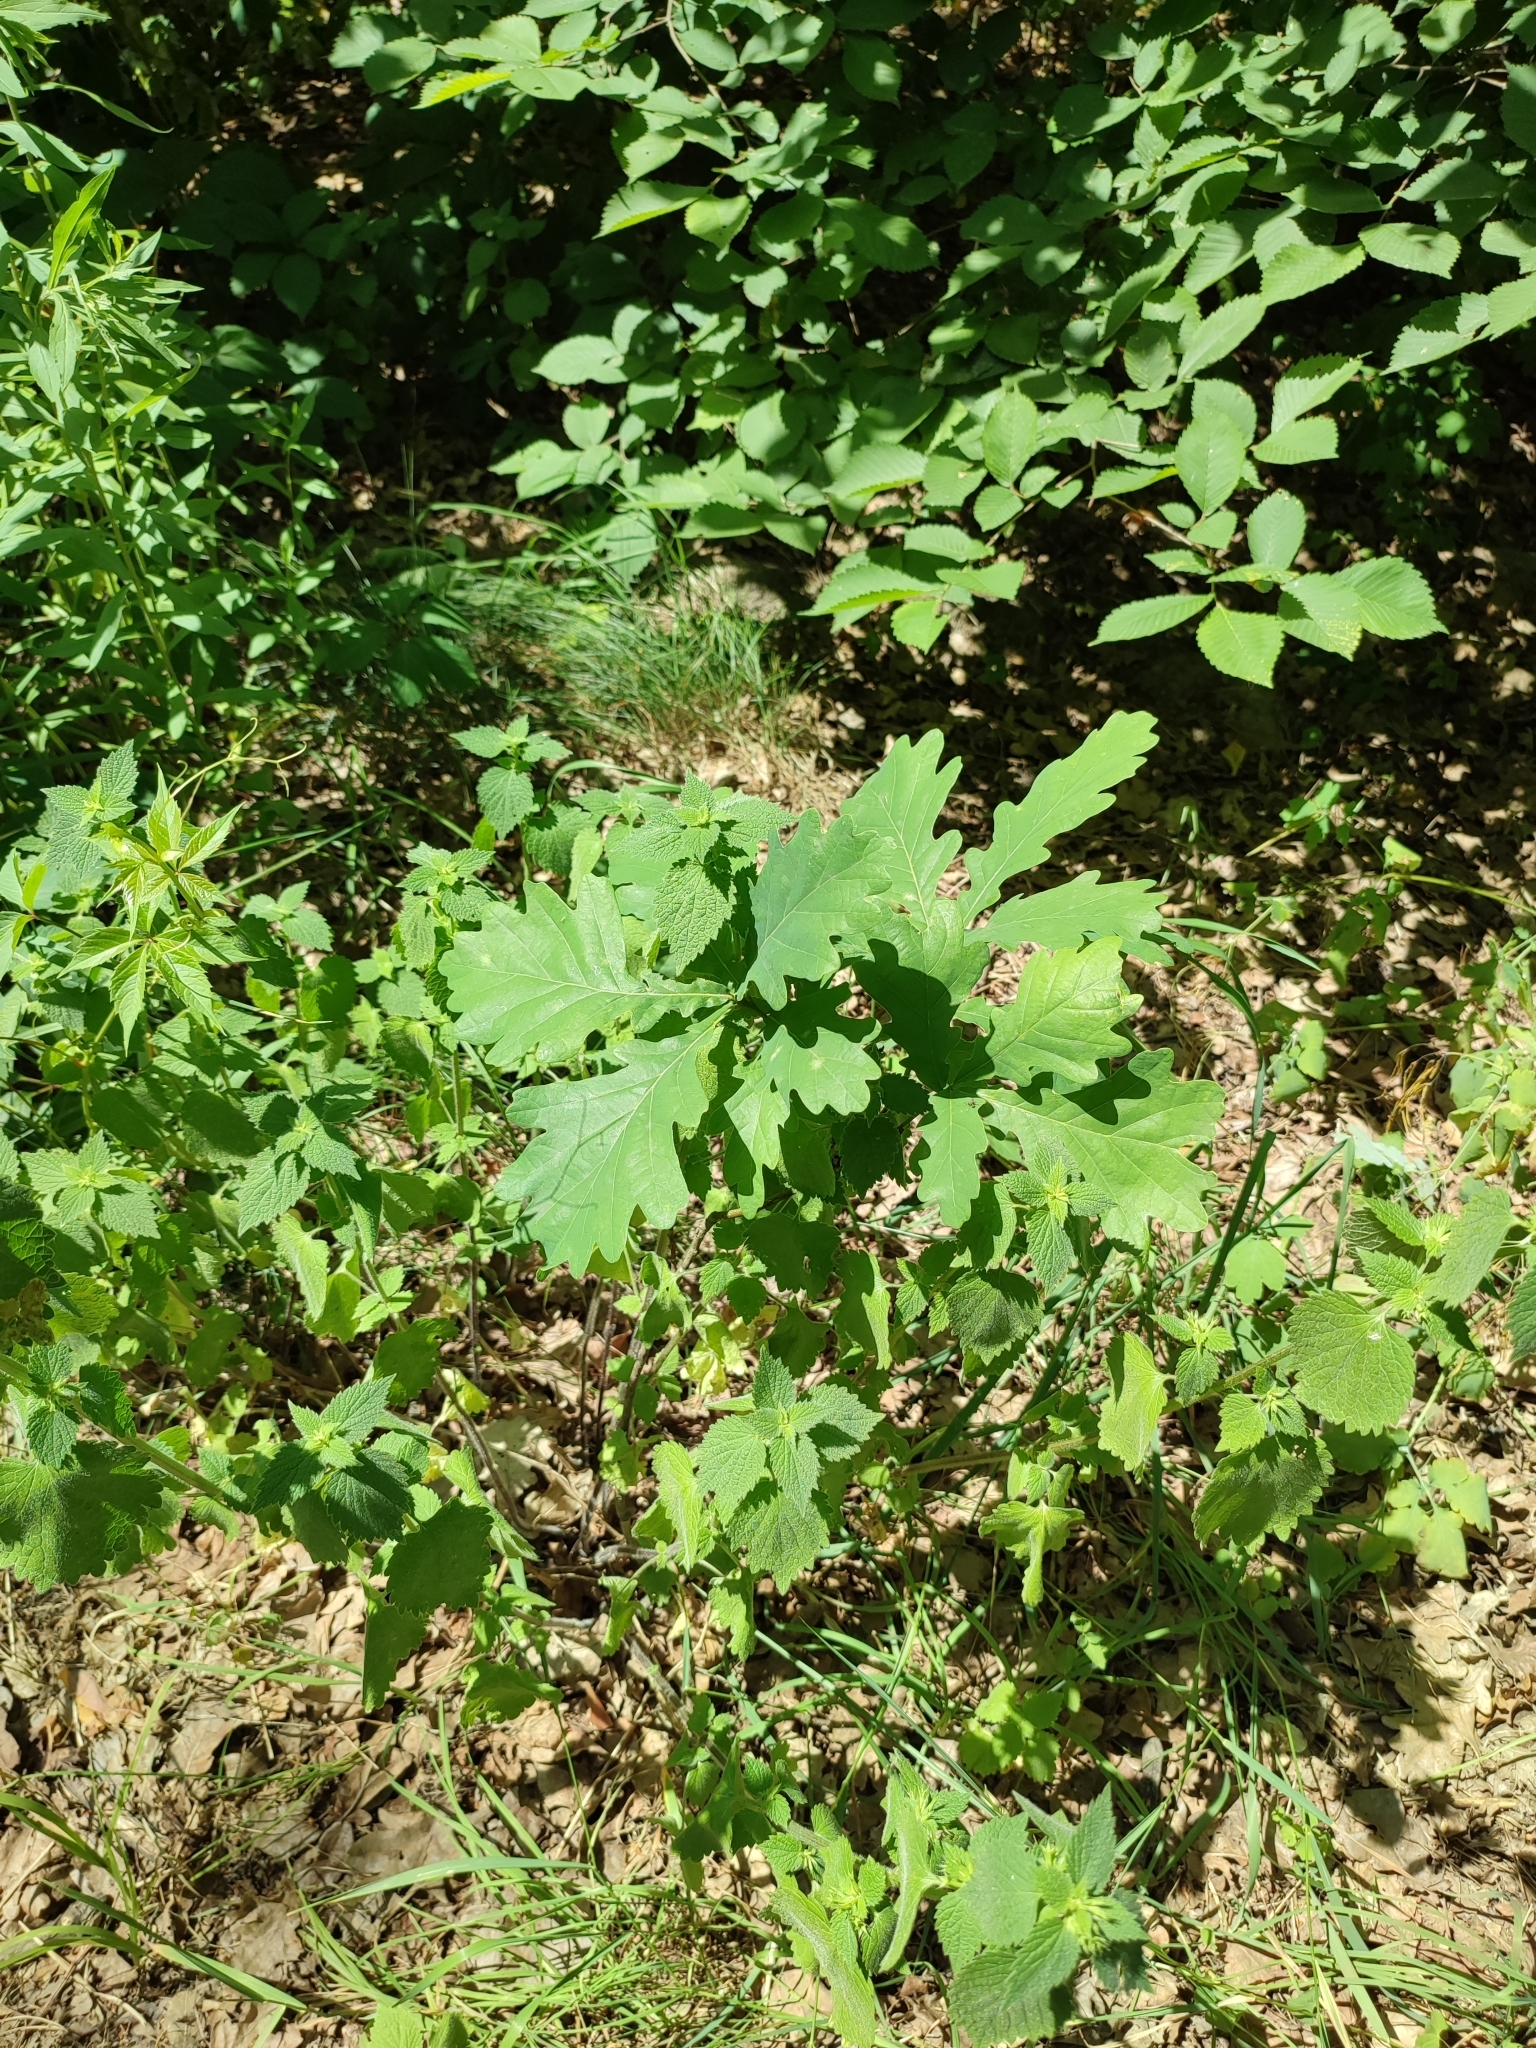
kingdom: Plantae
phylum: Tracheophyta
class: Magnoliopsida
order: Fagales
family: Fagaceae
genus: Quercus
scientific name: Quercus robur
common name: Pedunculate oak
